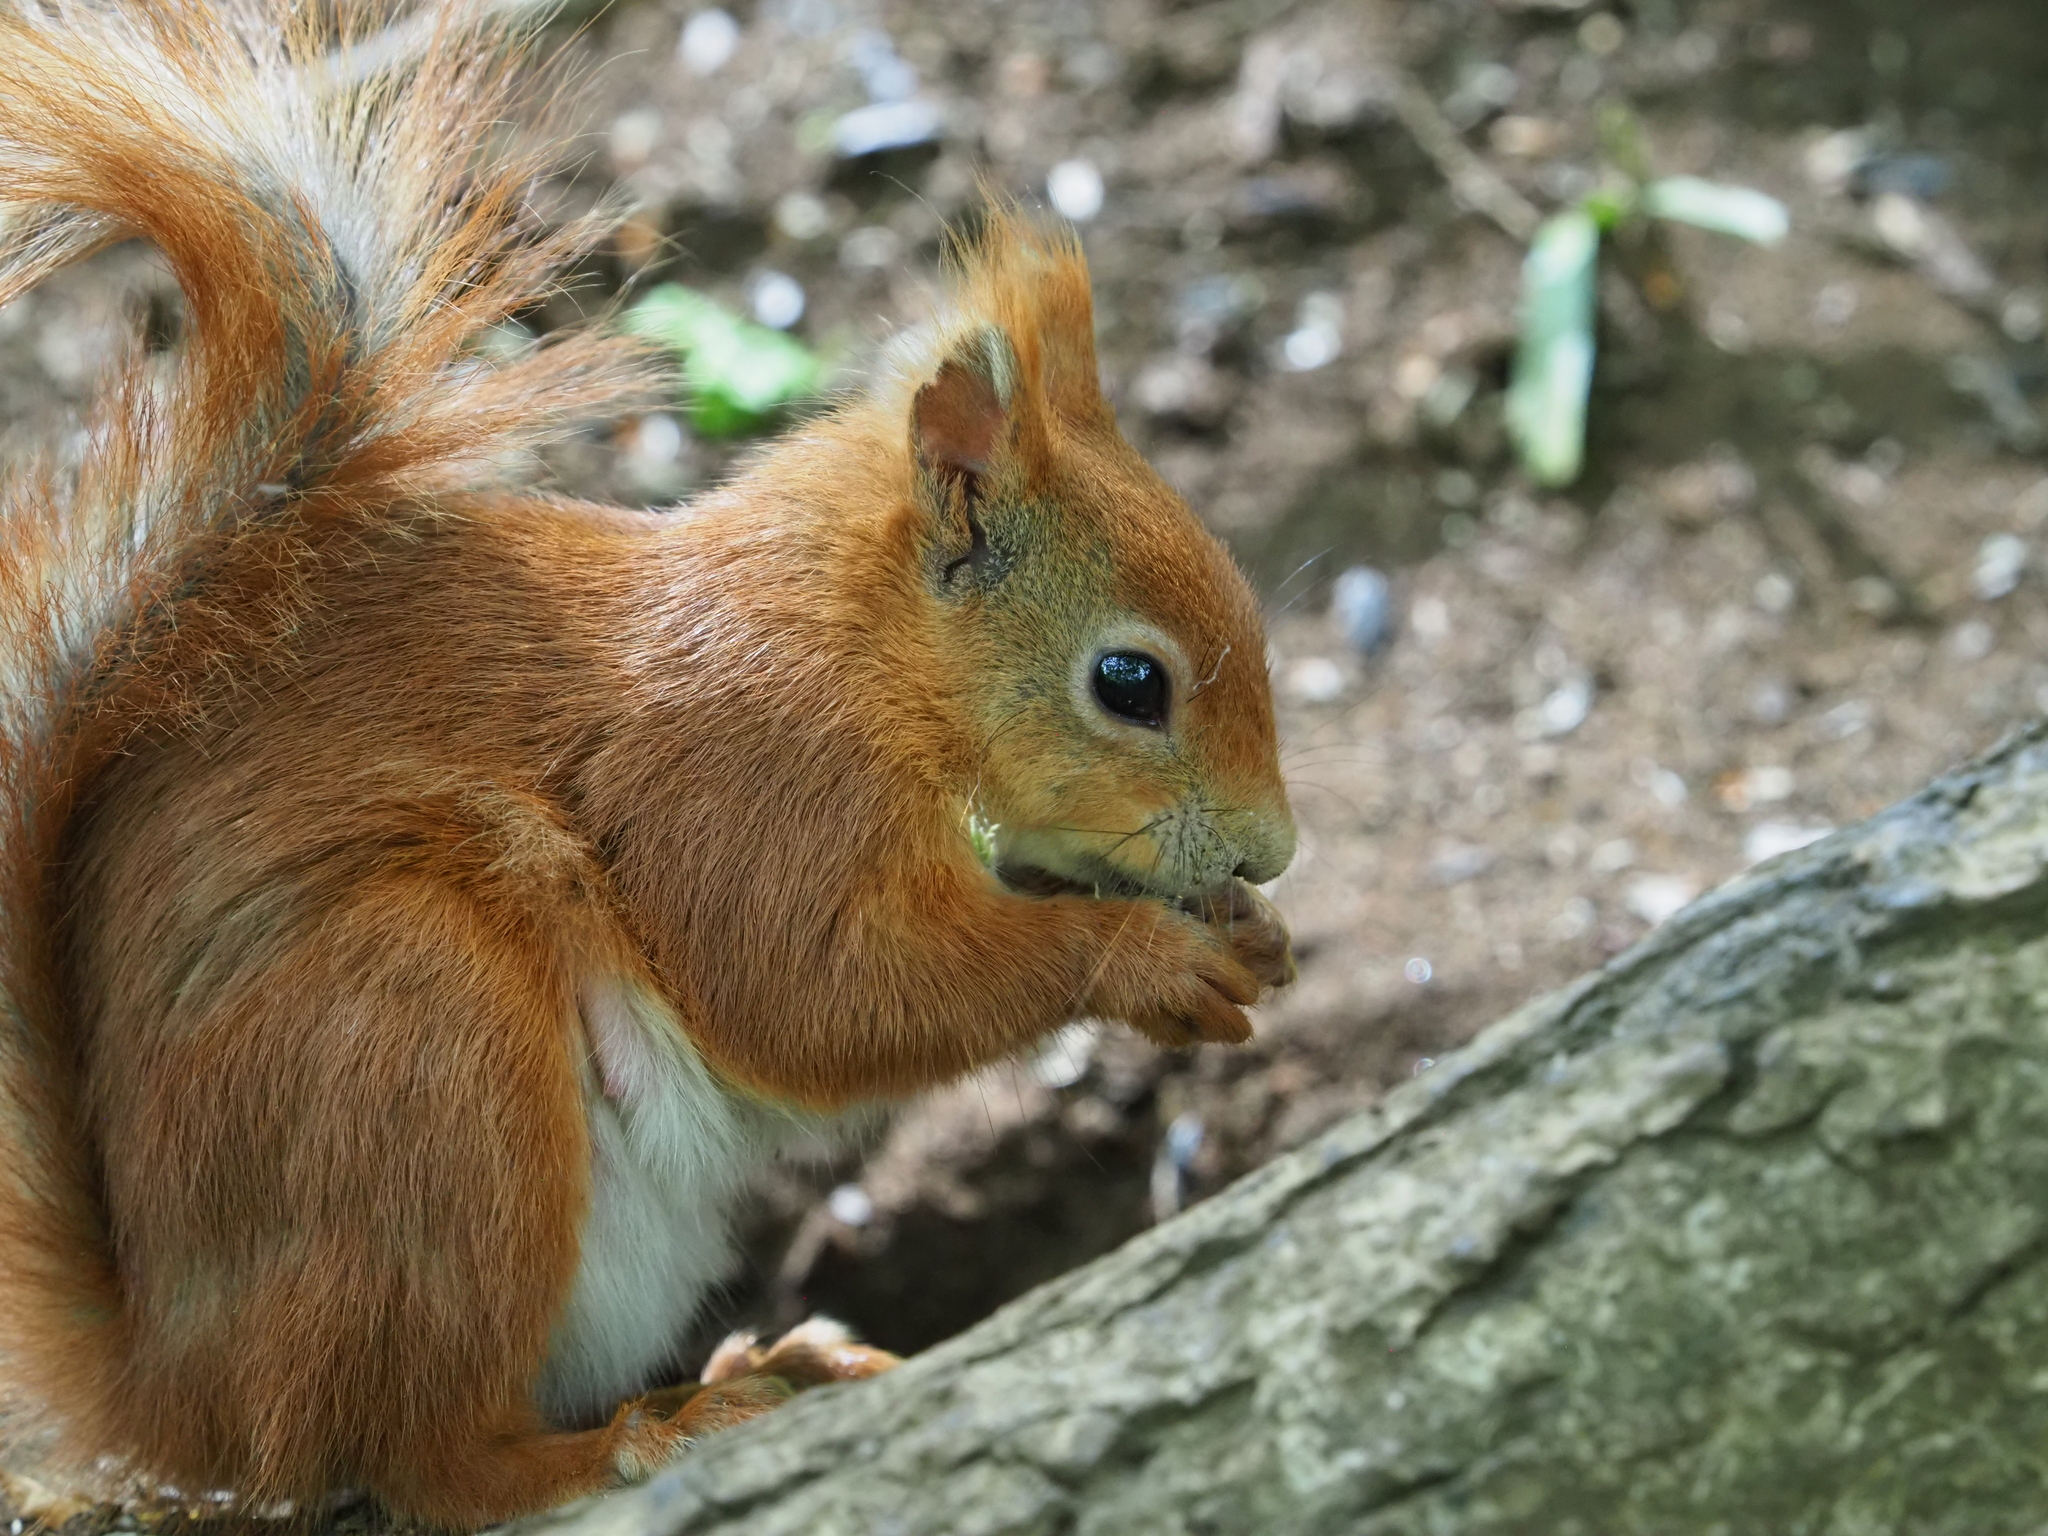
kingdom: Animalia
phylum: Chordata
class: Mammalia
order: Rodentia
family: Sciuridae
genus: Sciurus
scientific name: Sciurus vulgaris
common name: Eurasian red squirrel
